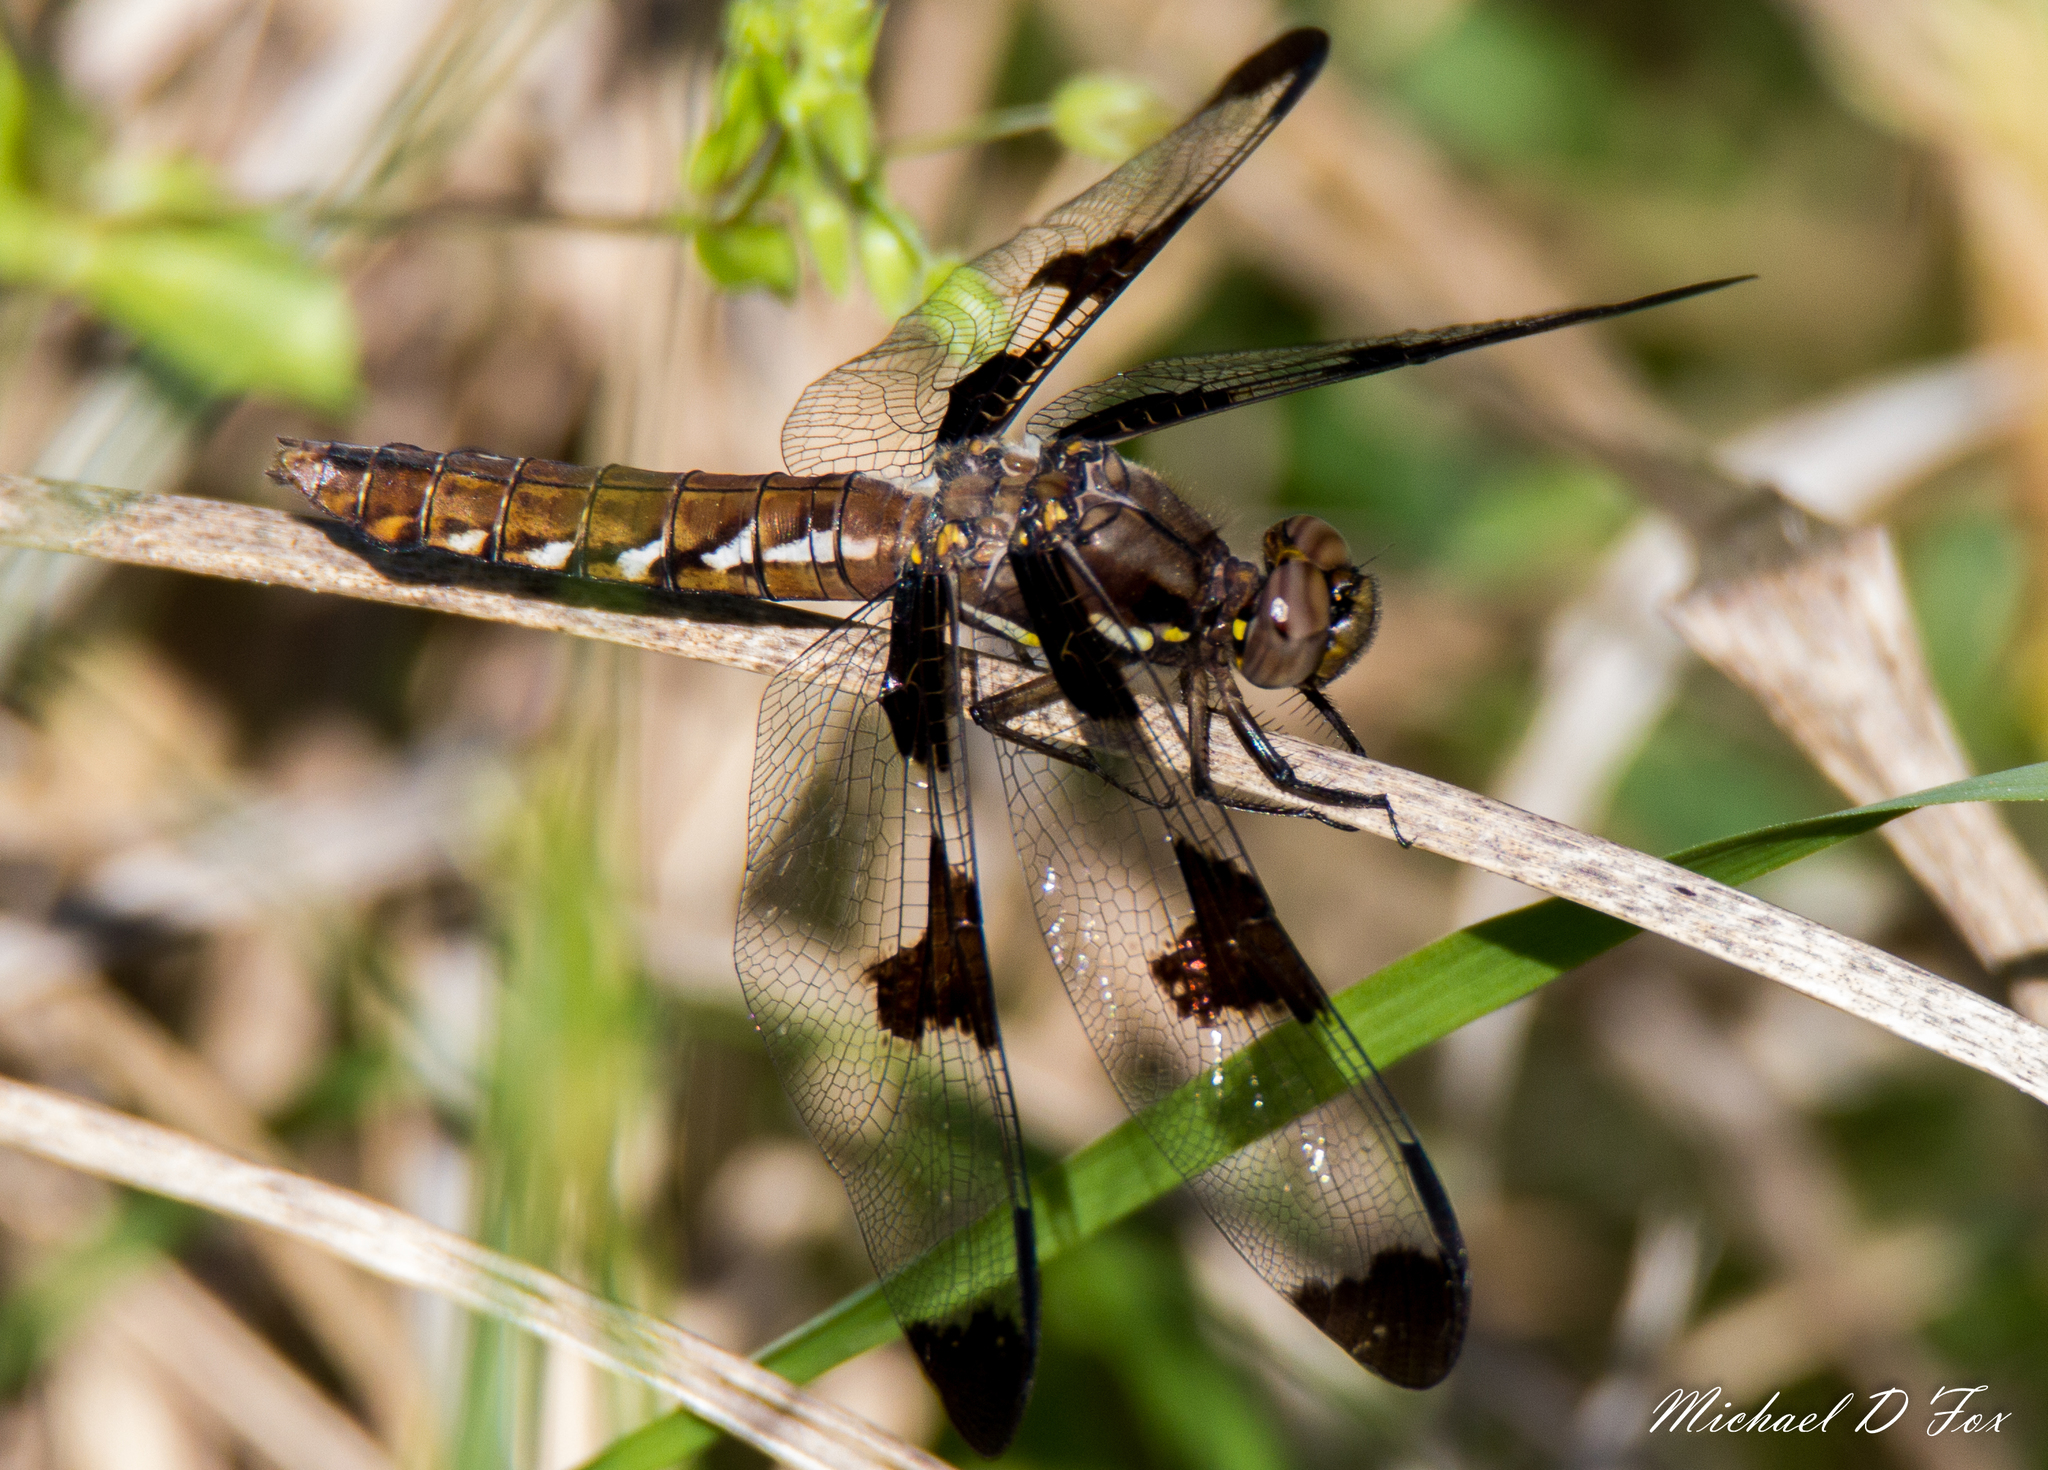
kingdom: Animalia
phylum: Arthropoda
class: Insecta
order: Odonata
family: Libellulidae
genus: Plathemis
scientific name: Plathemis lydia
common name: Common whitetail
